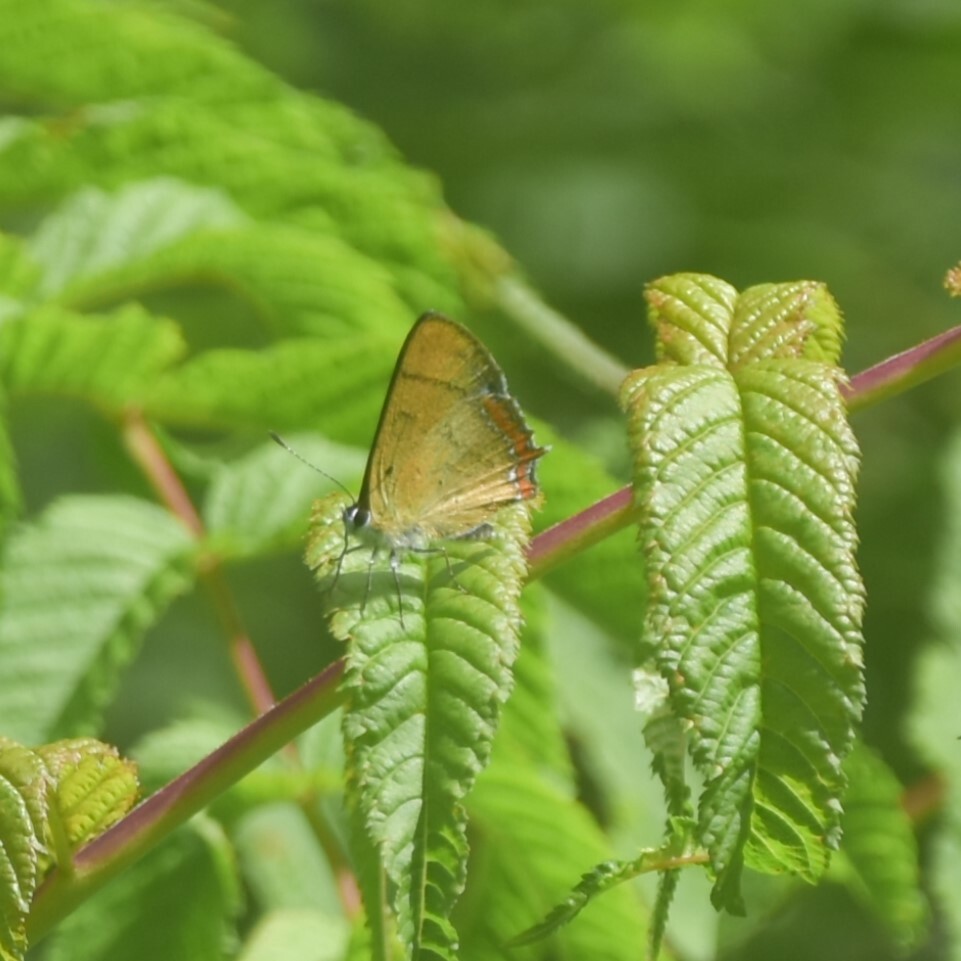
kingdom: Animalia
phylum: Arthropoda
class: Insecta
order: Lepidoptera
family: Lycaenidae
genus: Heliophorus
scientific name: Heliophorus
